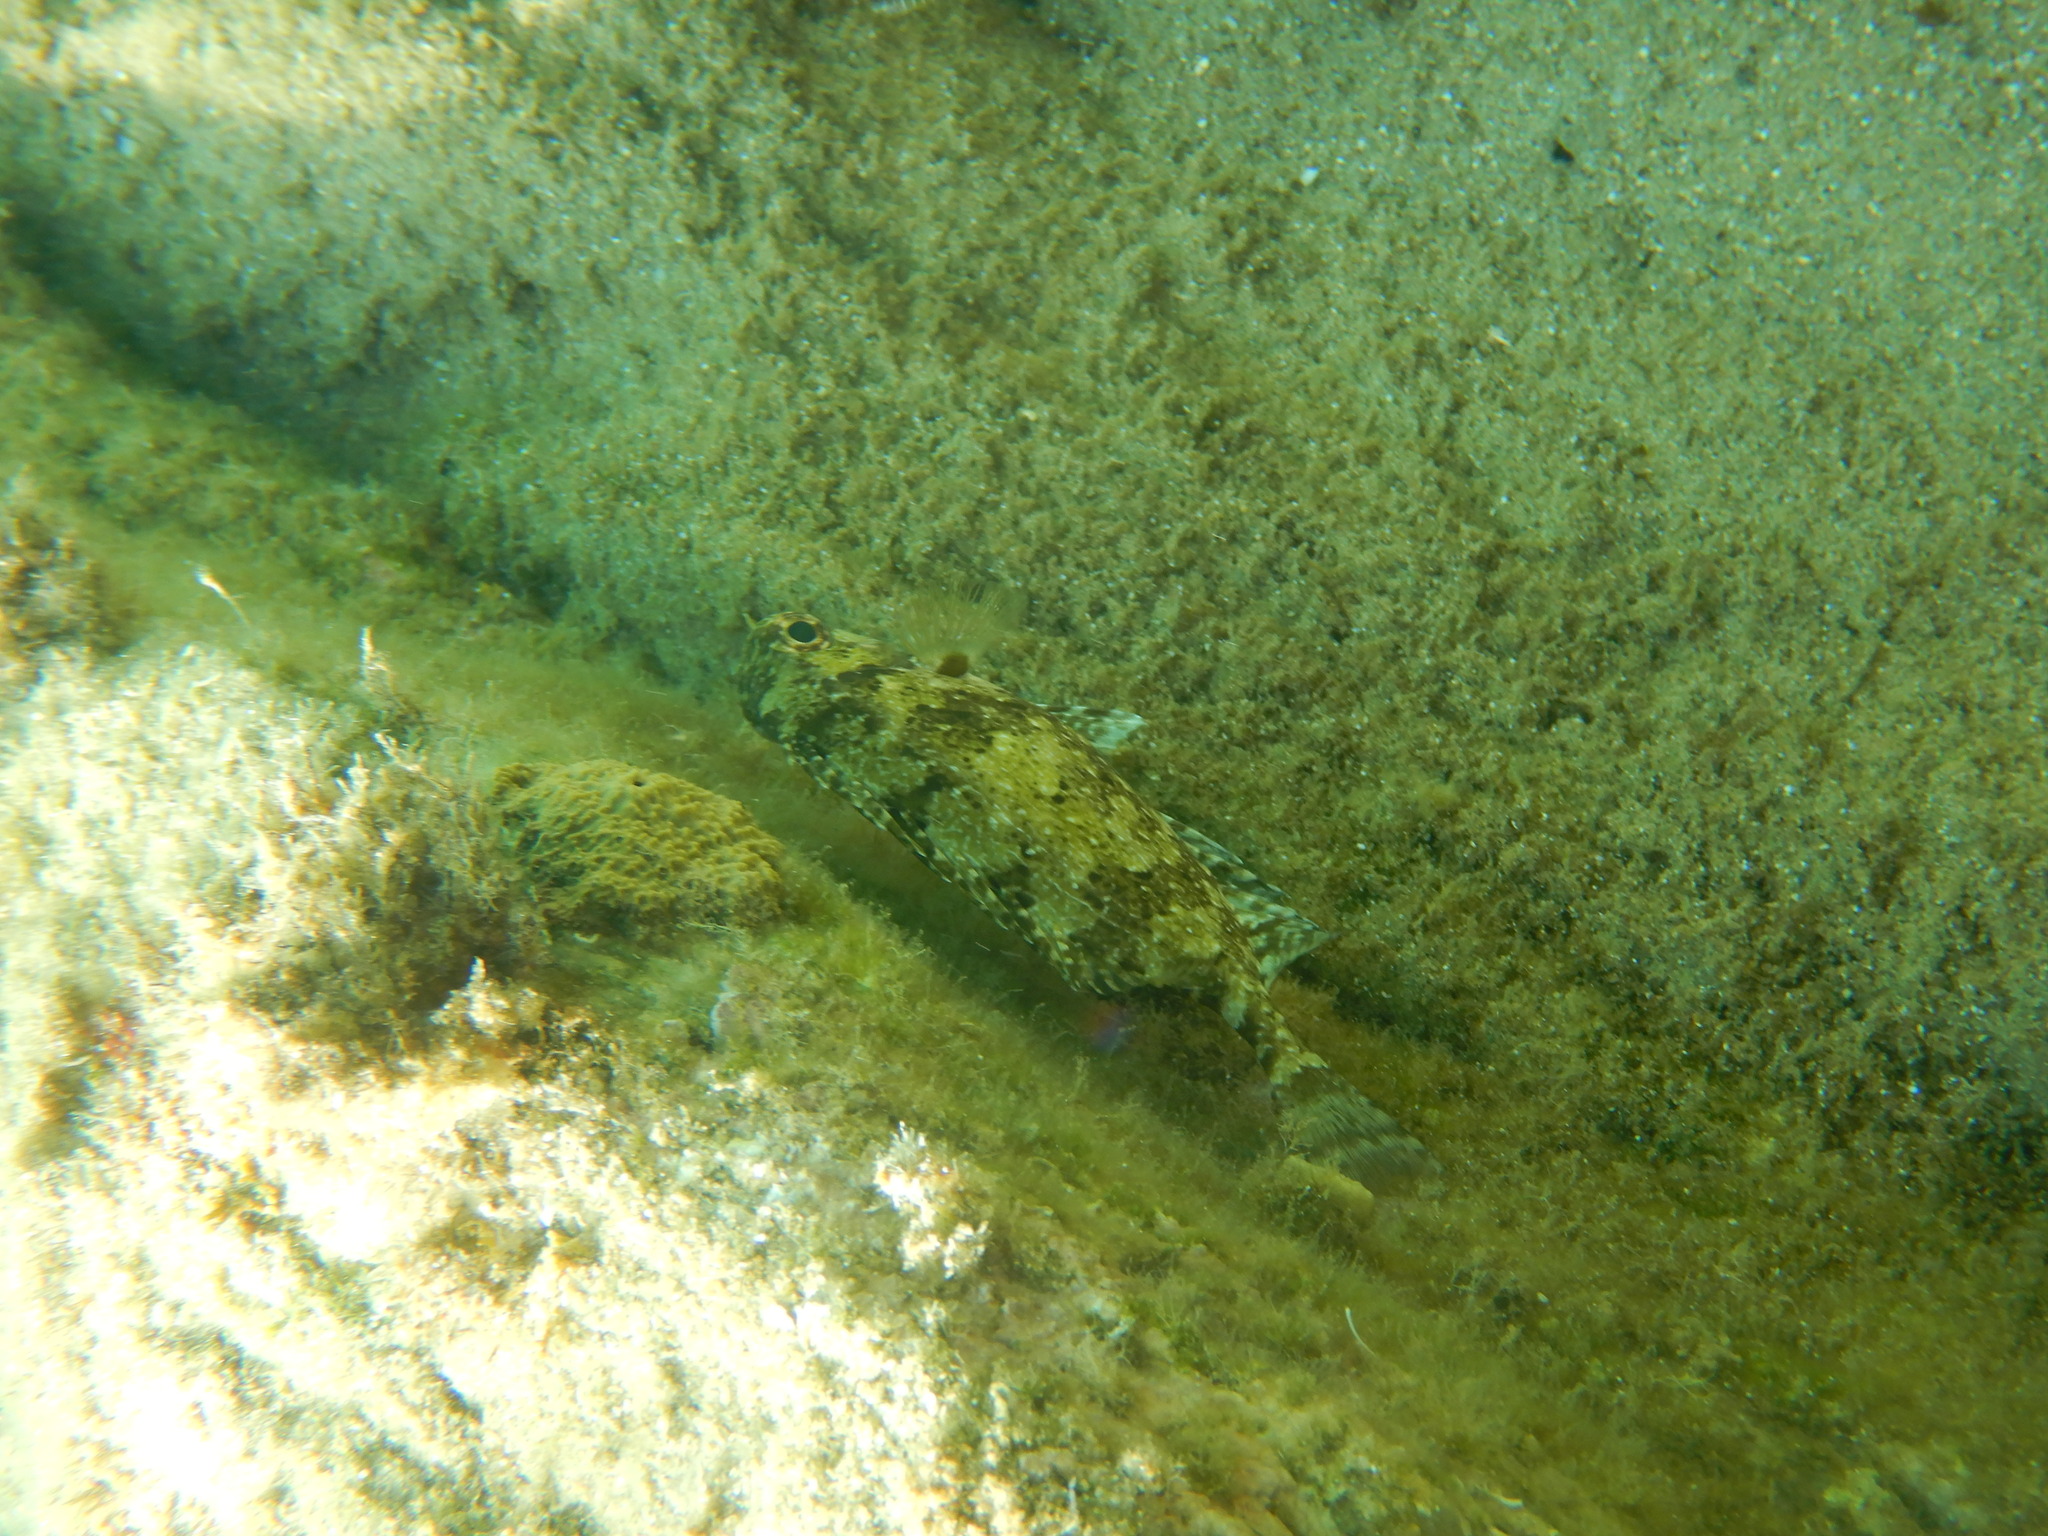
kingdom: Animalia
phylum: Chordata
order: Perciformes
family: Siganidae
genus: Siganus
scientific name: Siganus luridus
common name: Dusky spinefoot
